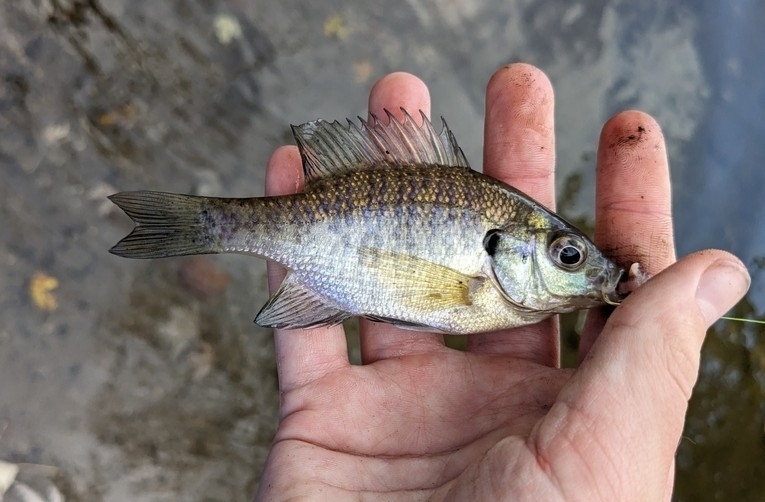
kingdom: Animalia
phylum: Chordata
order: Perciformes
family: Centrarchidae
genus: Lepomis
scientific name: Lepomis macrochirus
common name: Bluegill
